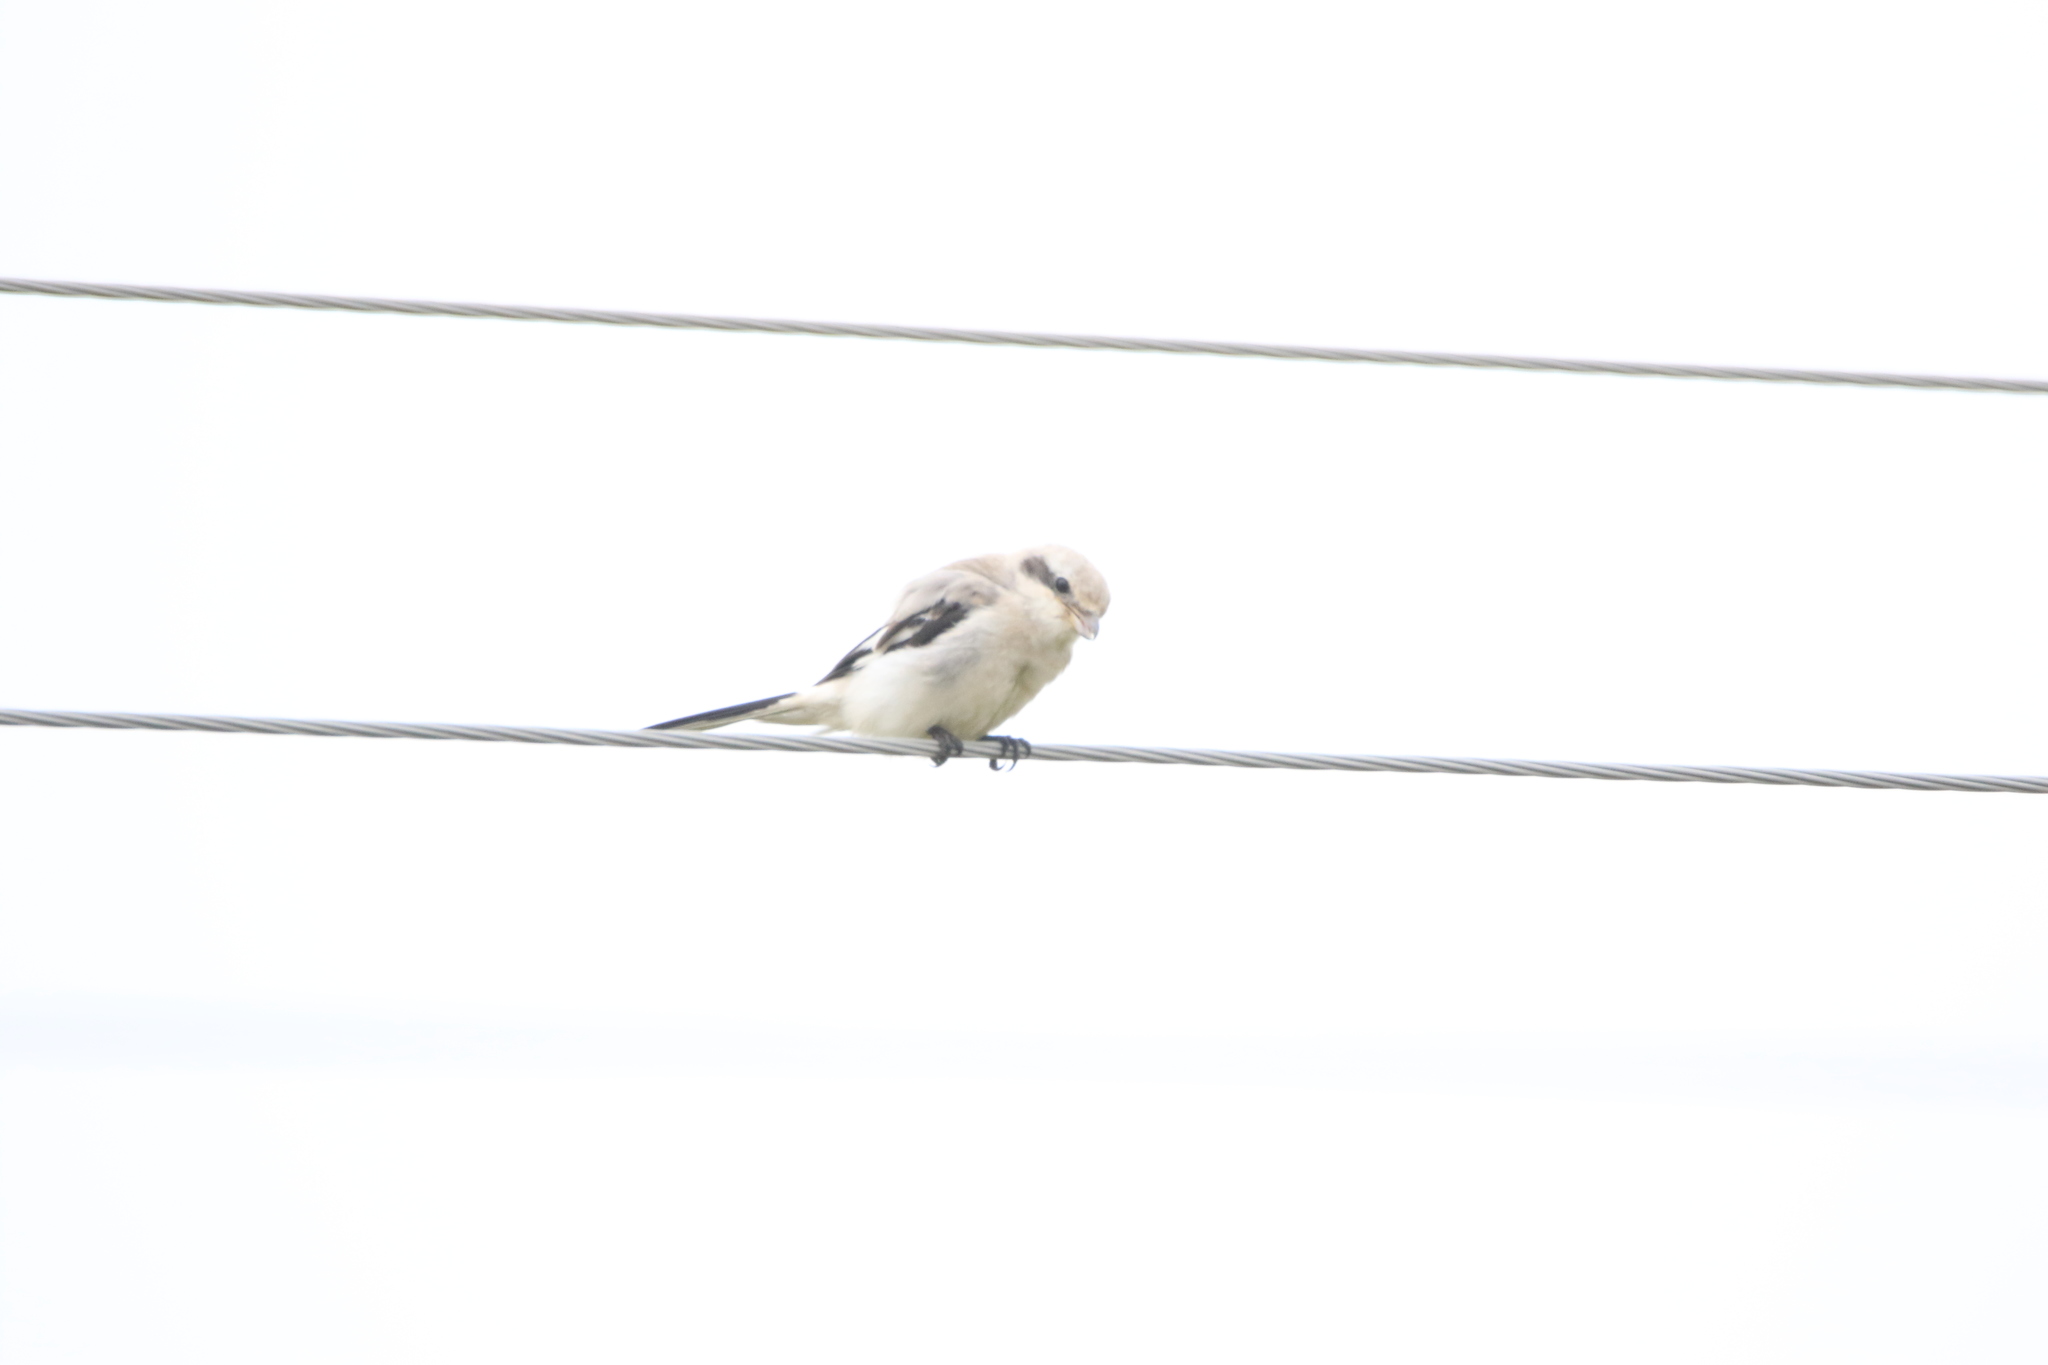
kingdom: Animalia
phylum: Chordata
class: Aves
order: Passeriformes
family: Laniidae
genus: Lanius
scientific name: Lanius excubitor
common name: Great grey shrike
